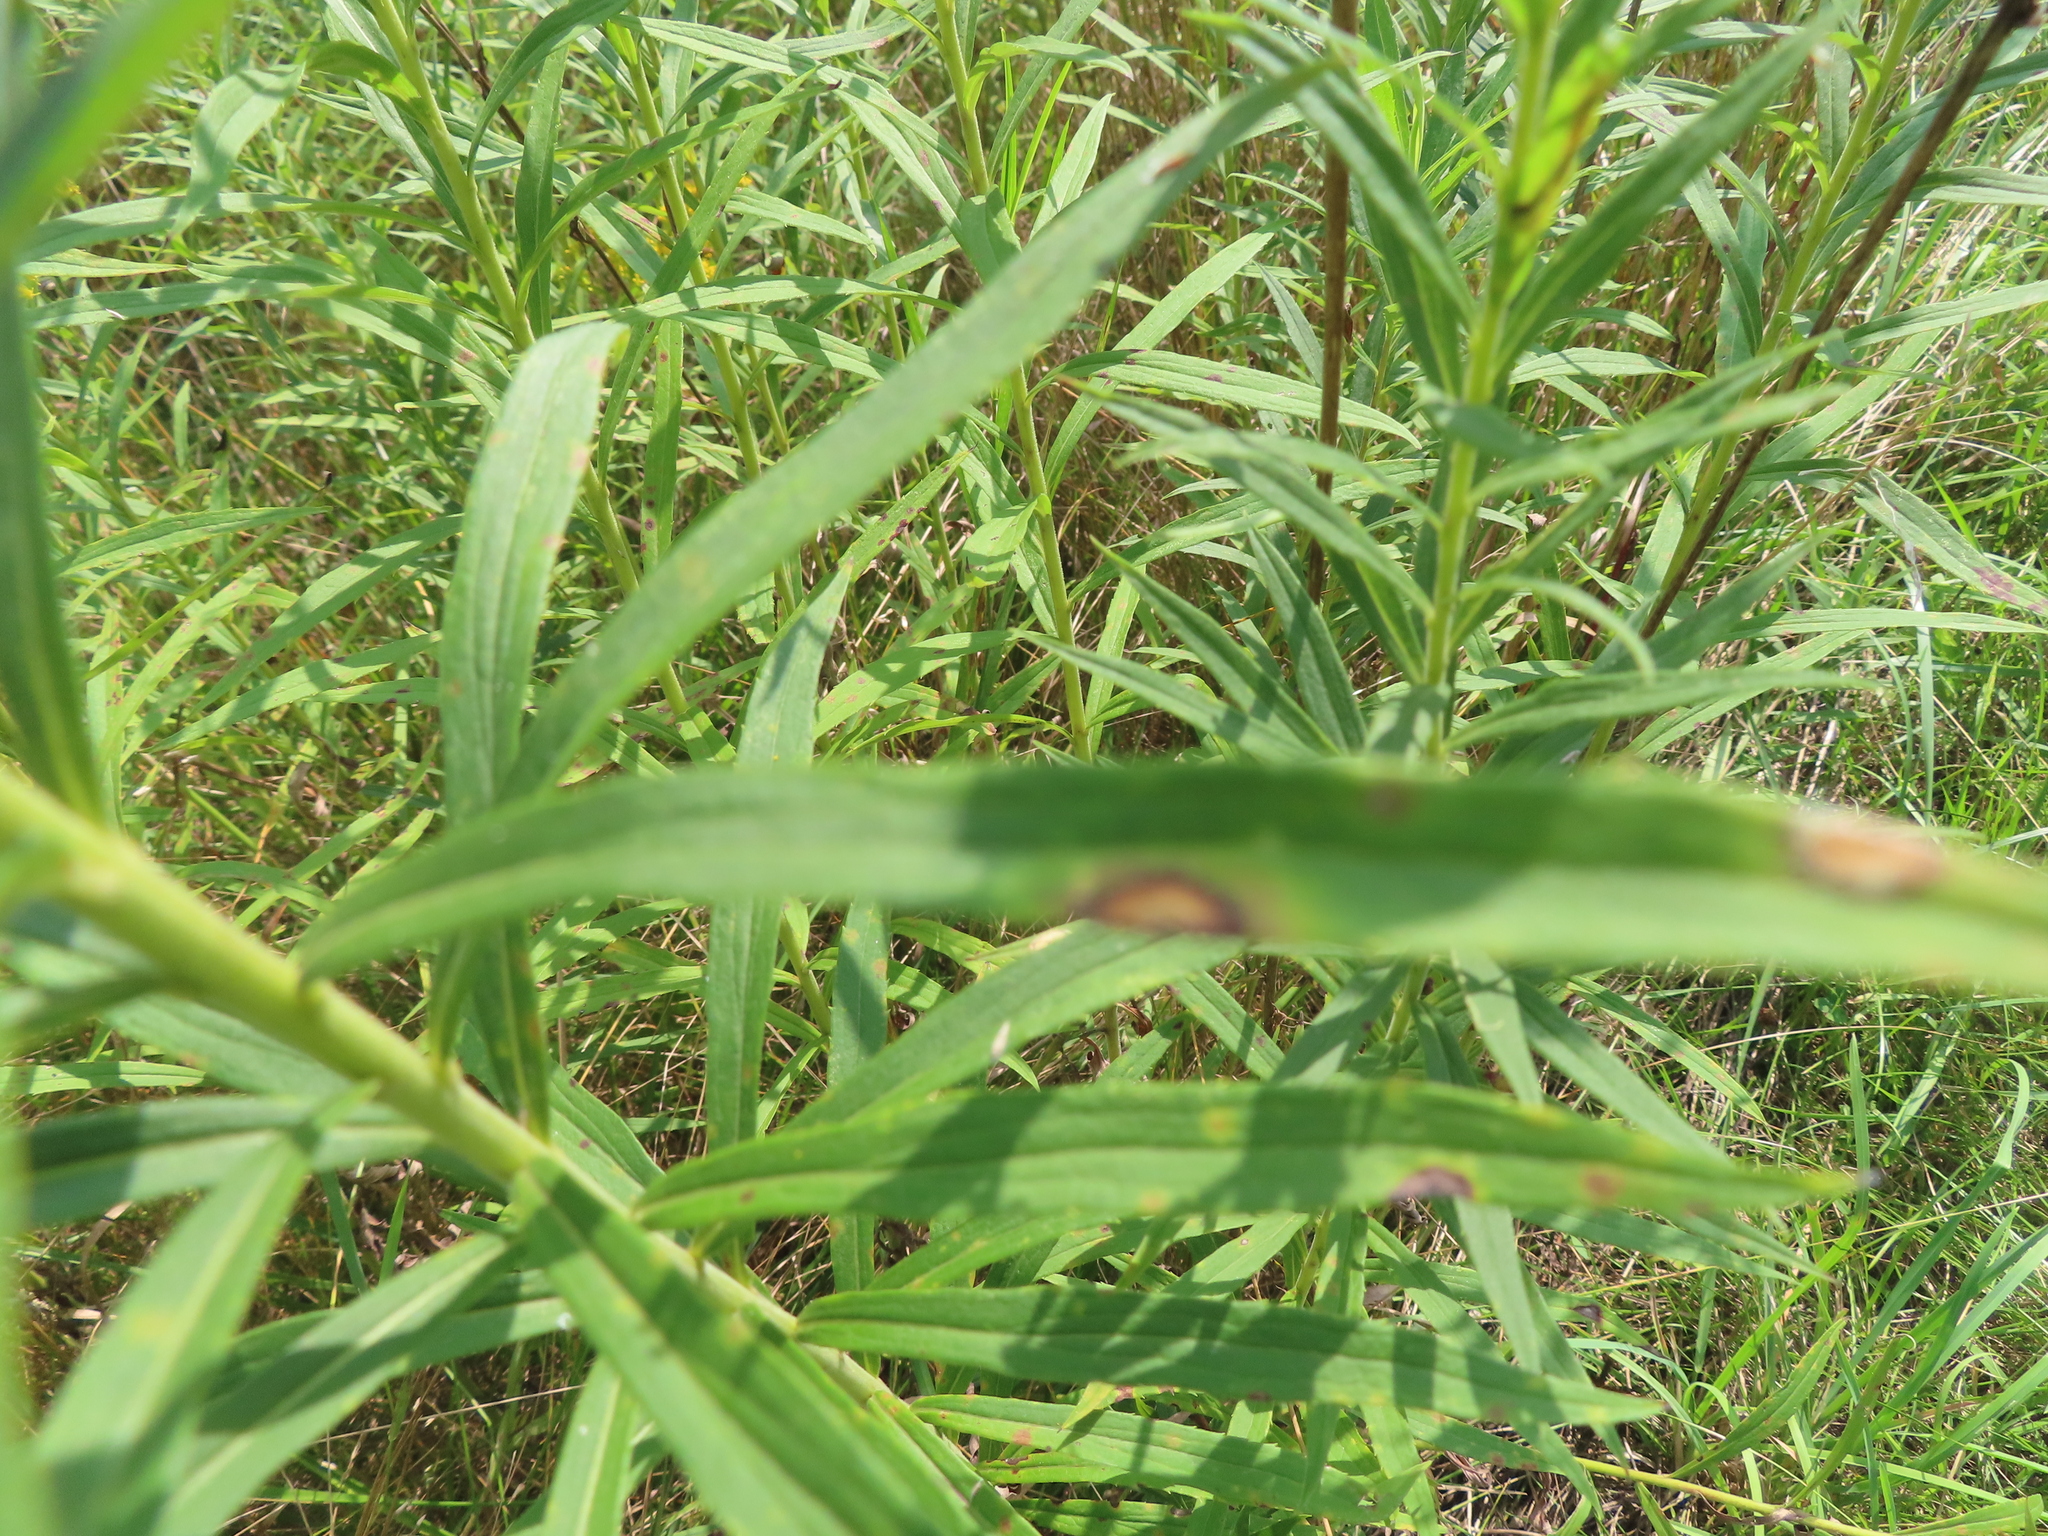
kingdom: Animalia
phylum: Arthropoda
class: Insecta
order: Diptera
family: Cecidomyiidae
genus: Asteromyia
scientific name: Asteromyia carbonifera
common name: Carbonifera goldenrod gall midge
